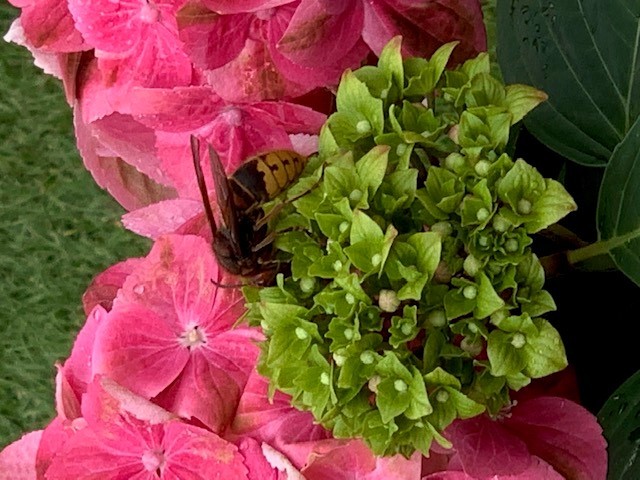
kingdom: Animalia
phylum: Arthropoda
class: Insecta
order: Hymenoptera
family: Vespidae
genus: Vespa
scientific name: Vespa crabro
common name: Hornet
